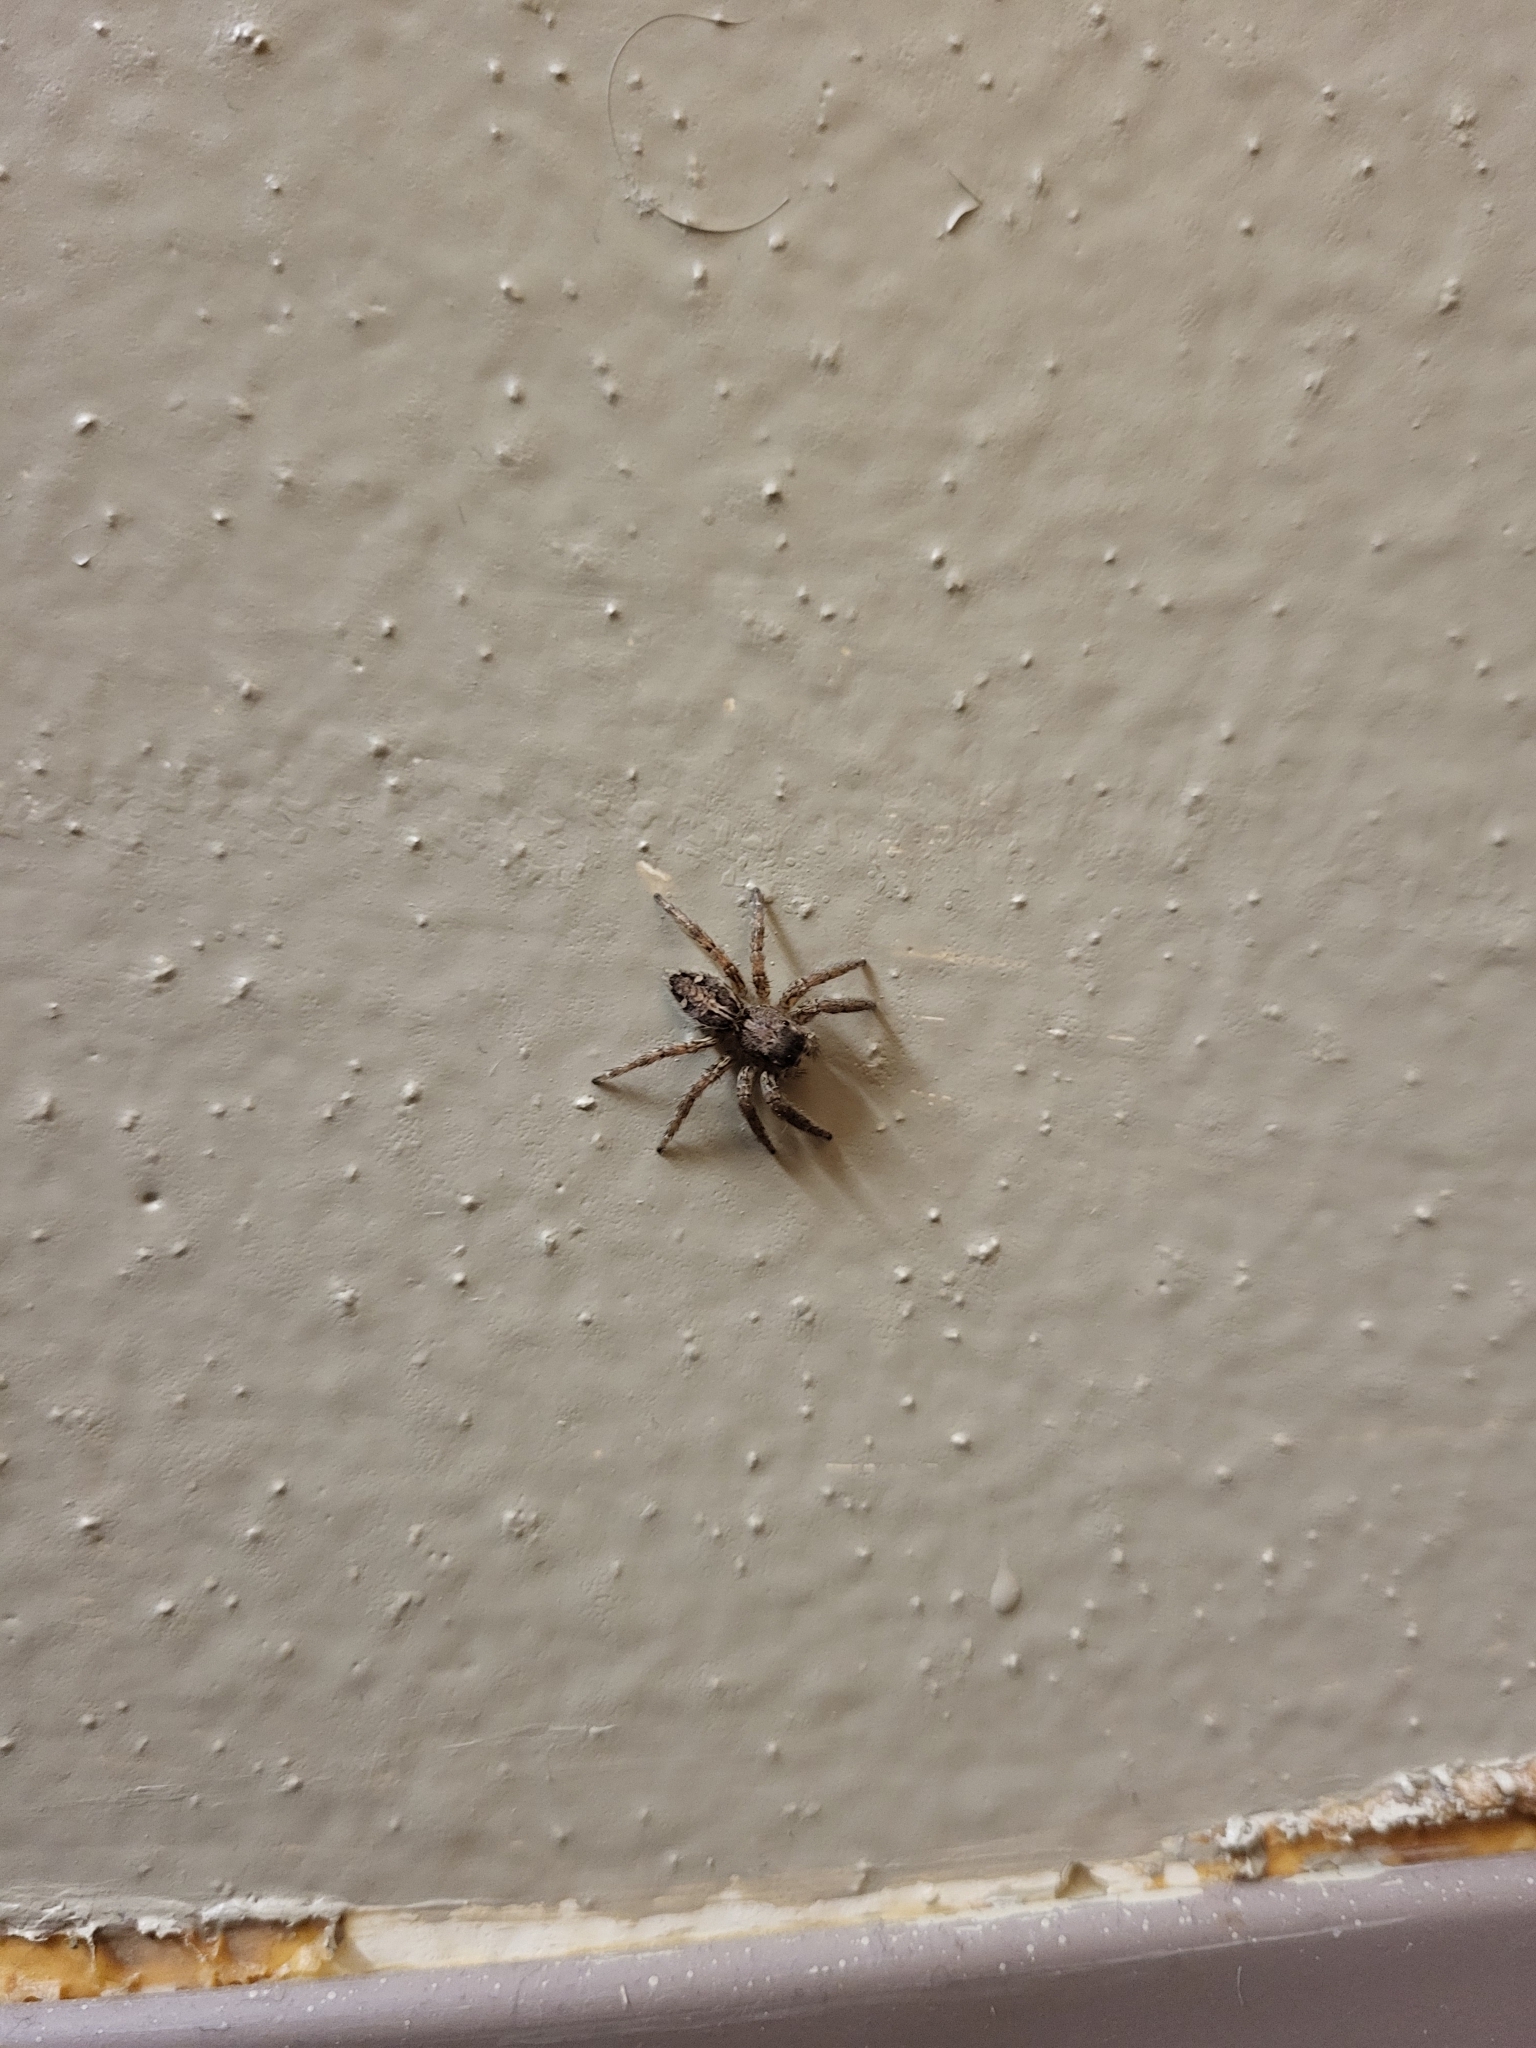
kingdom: Animalia
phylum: Arthropoda
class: Arachnida
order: Araneae
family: Salticidae
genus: Plexippus
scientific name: Plexippus paykulli
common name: Pantropical jumper
